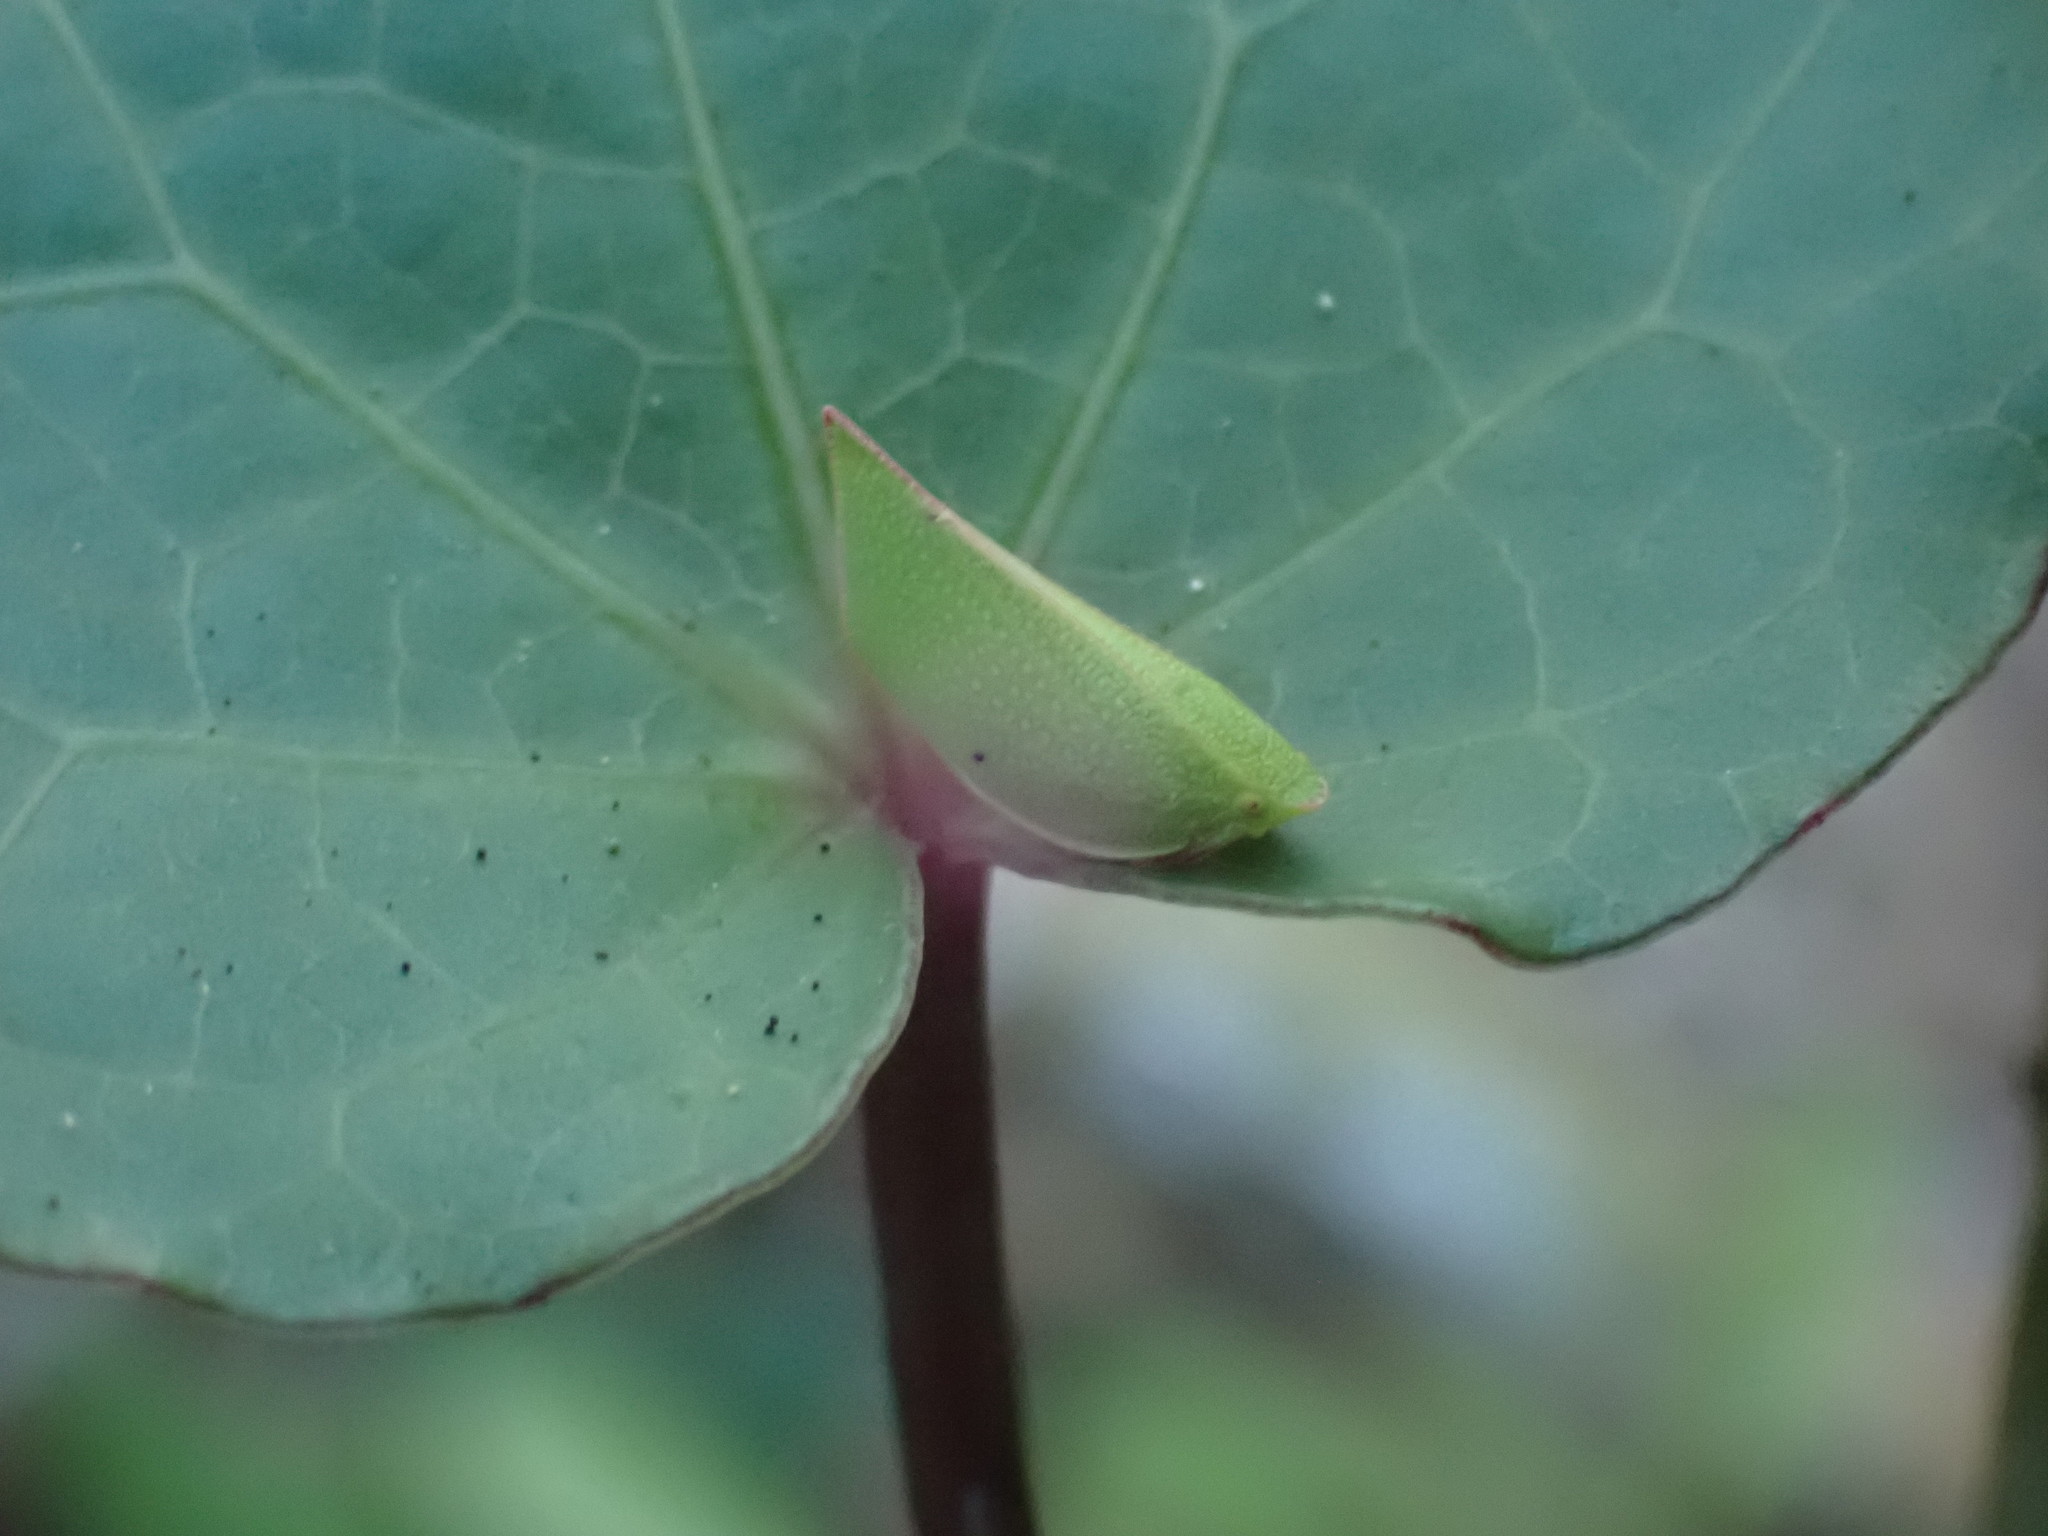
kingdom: Animalia
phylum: Arthropoda
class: Insecta
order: Hemiptera
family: Flatidae
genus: Siphanta
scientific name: Siphanta acuta
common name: Torpedo bug
